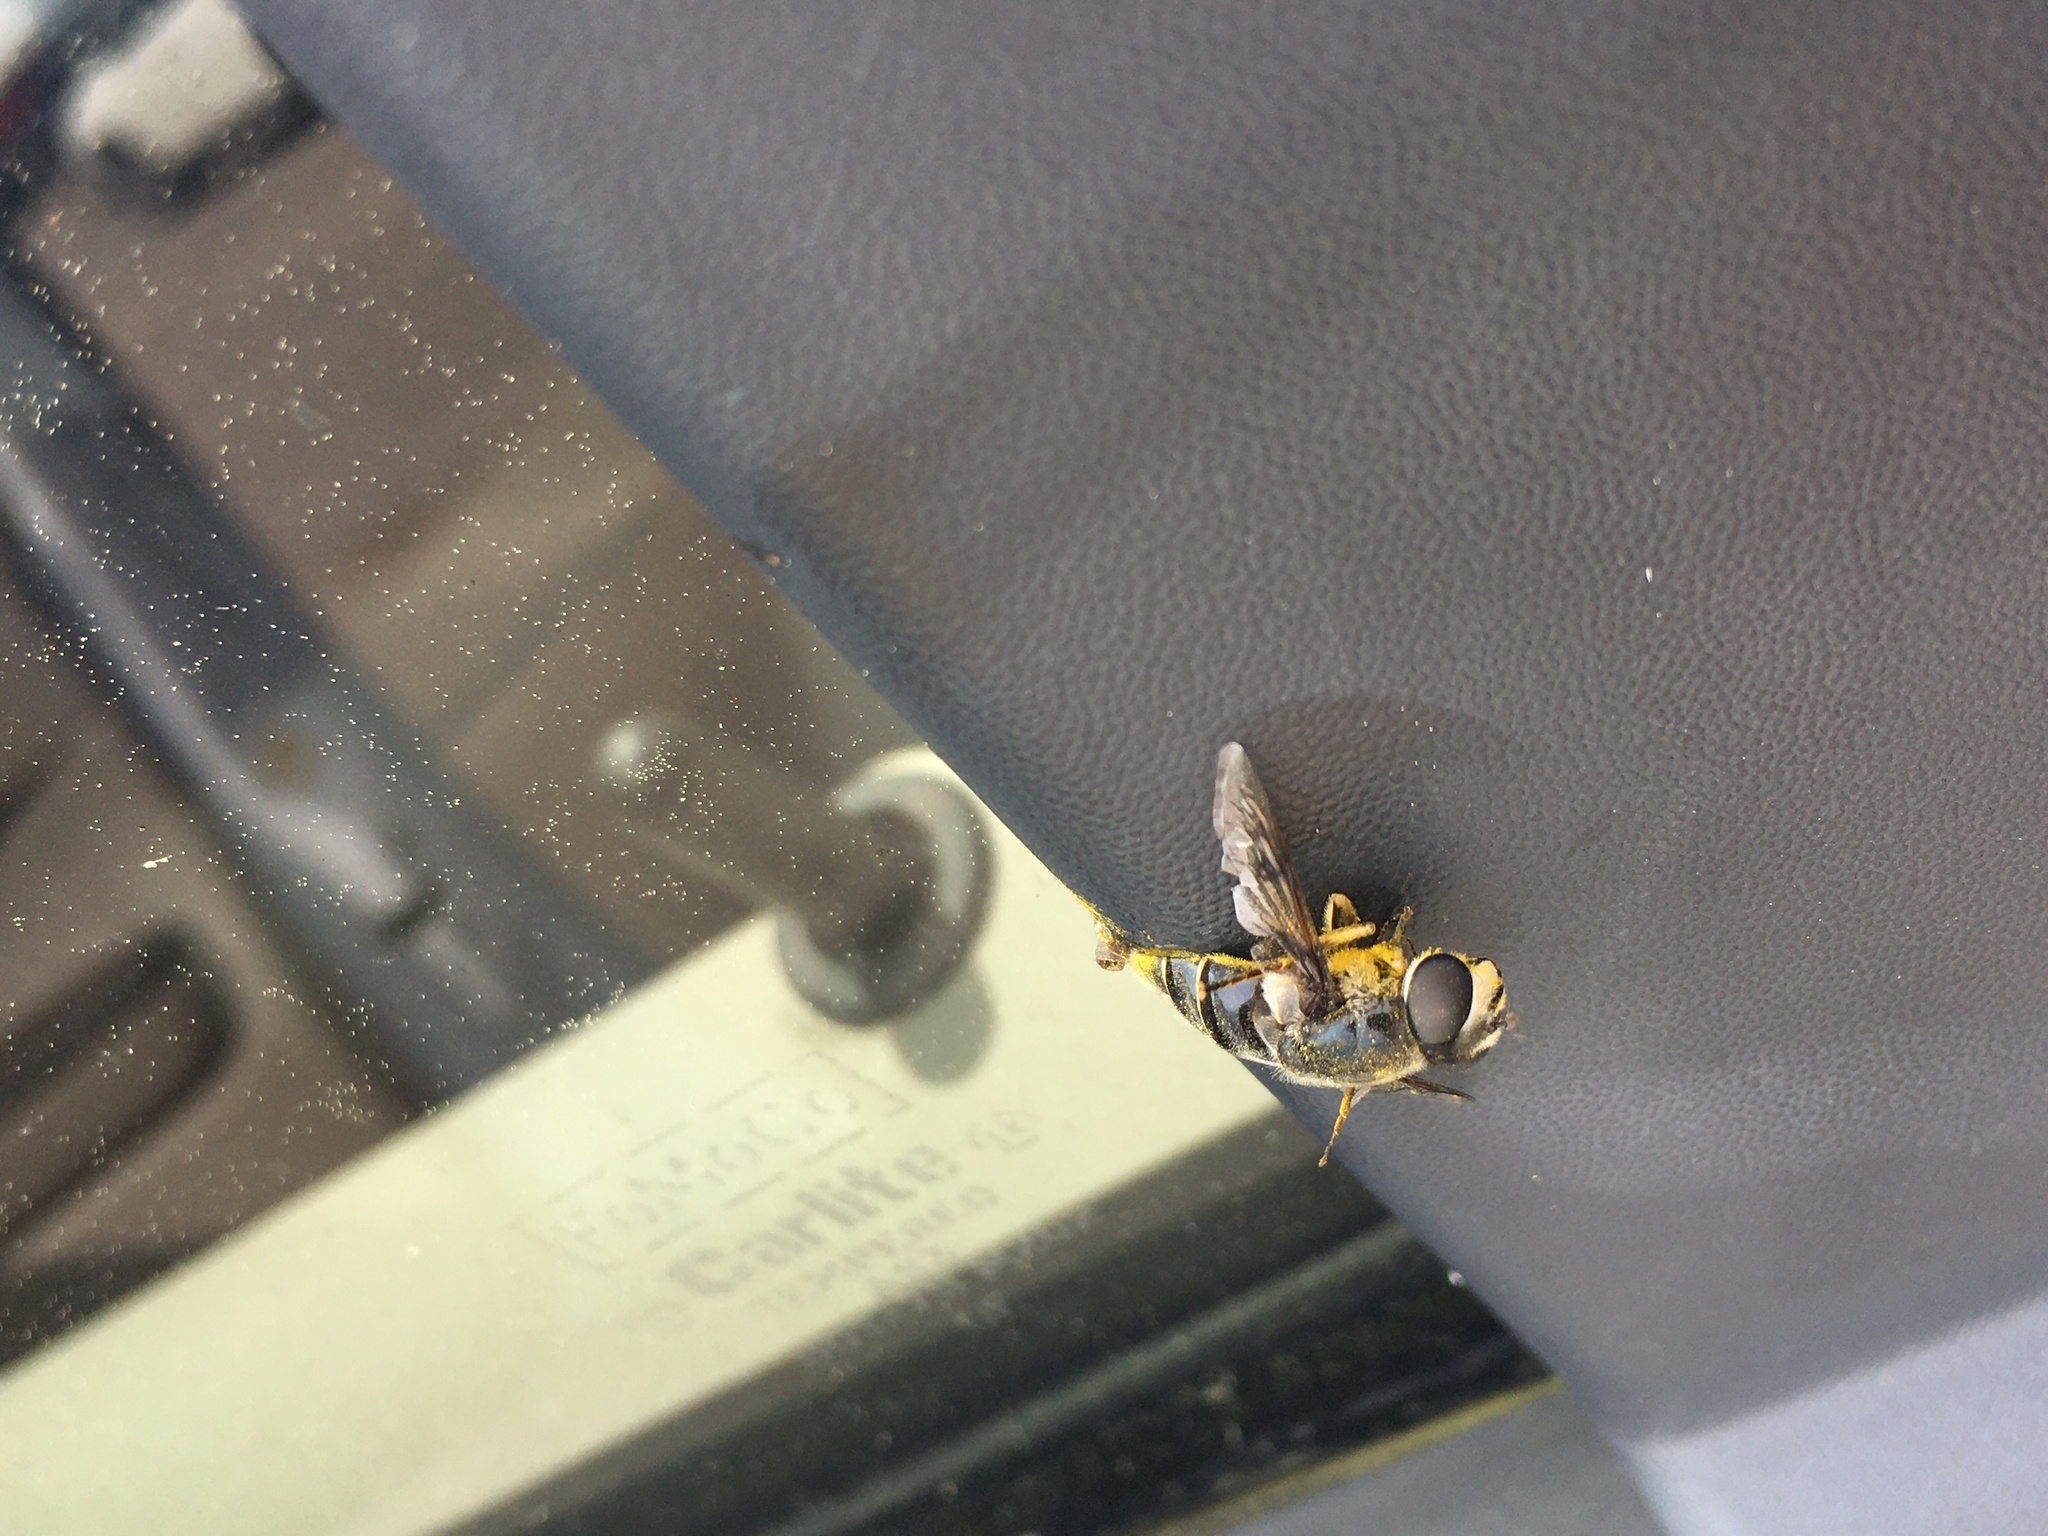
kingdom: Animalia
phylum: Arthropoda
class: Insecta
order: Diptera
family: Syrphidae
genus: Eristalis
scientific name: Eristalis saxorum
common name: Blue-polished drone fly
